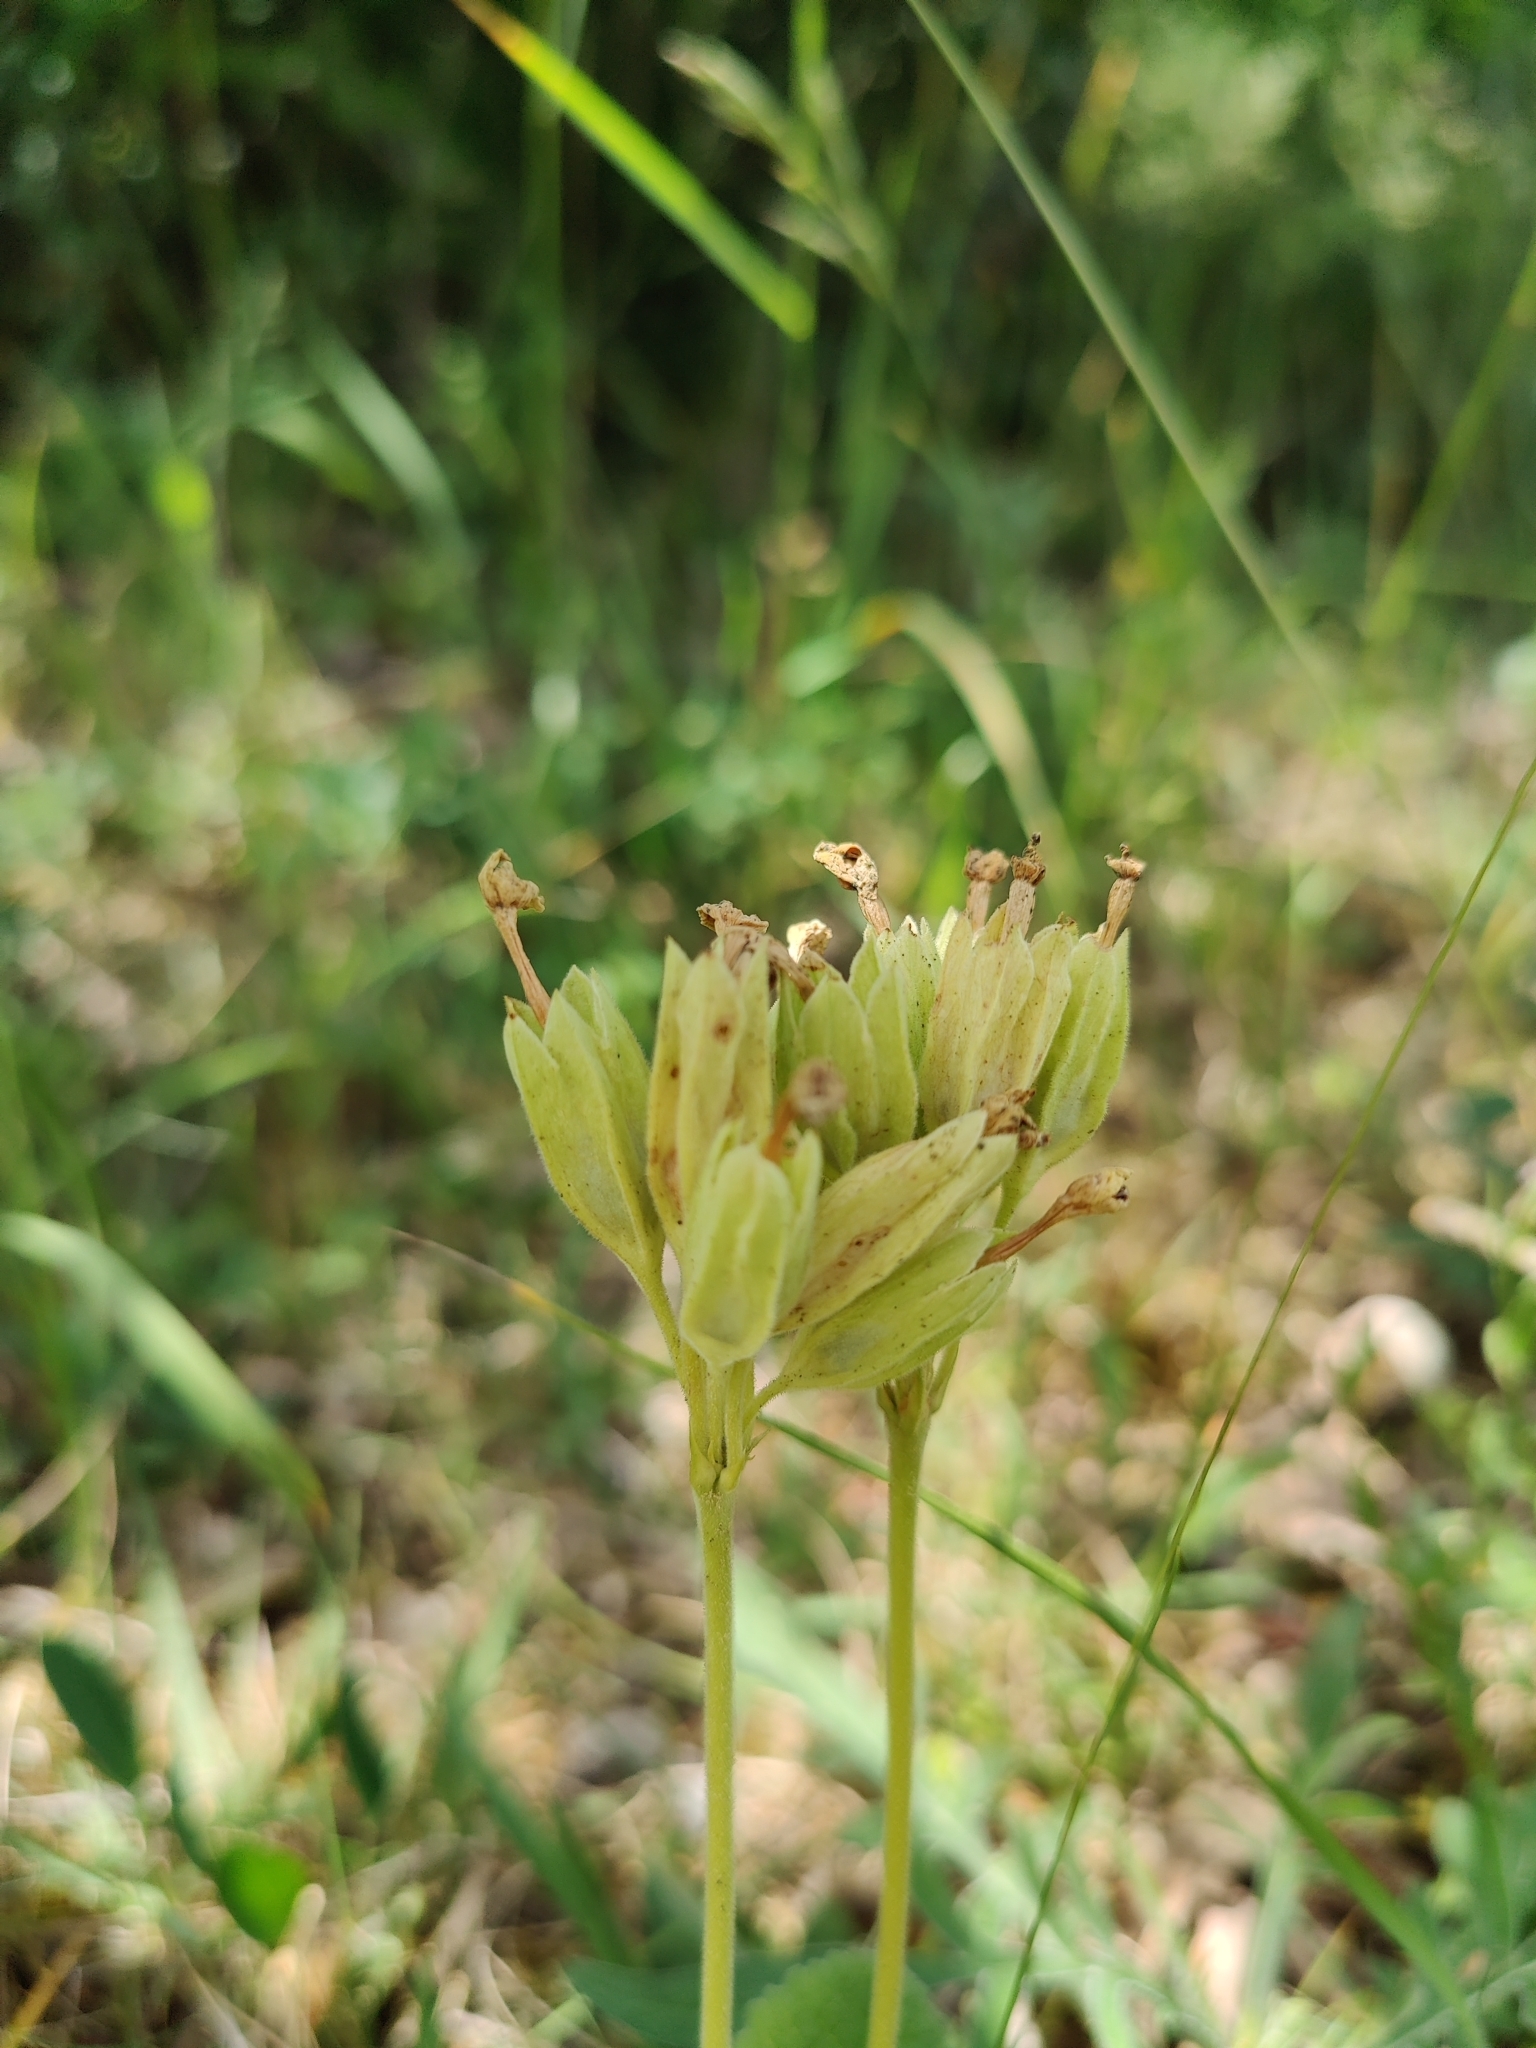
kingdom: Plantae
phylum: Tracheophyta
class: Magnoliopsida
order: Ericales
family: Primulaceae
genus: Primula
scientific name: Primula veris
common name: Cowslip
